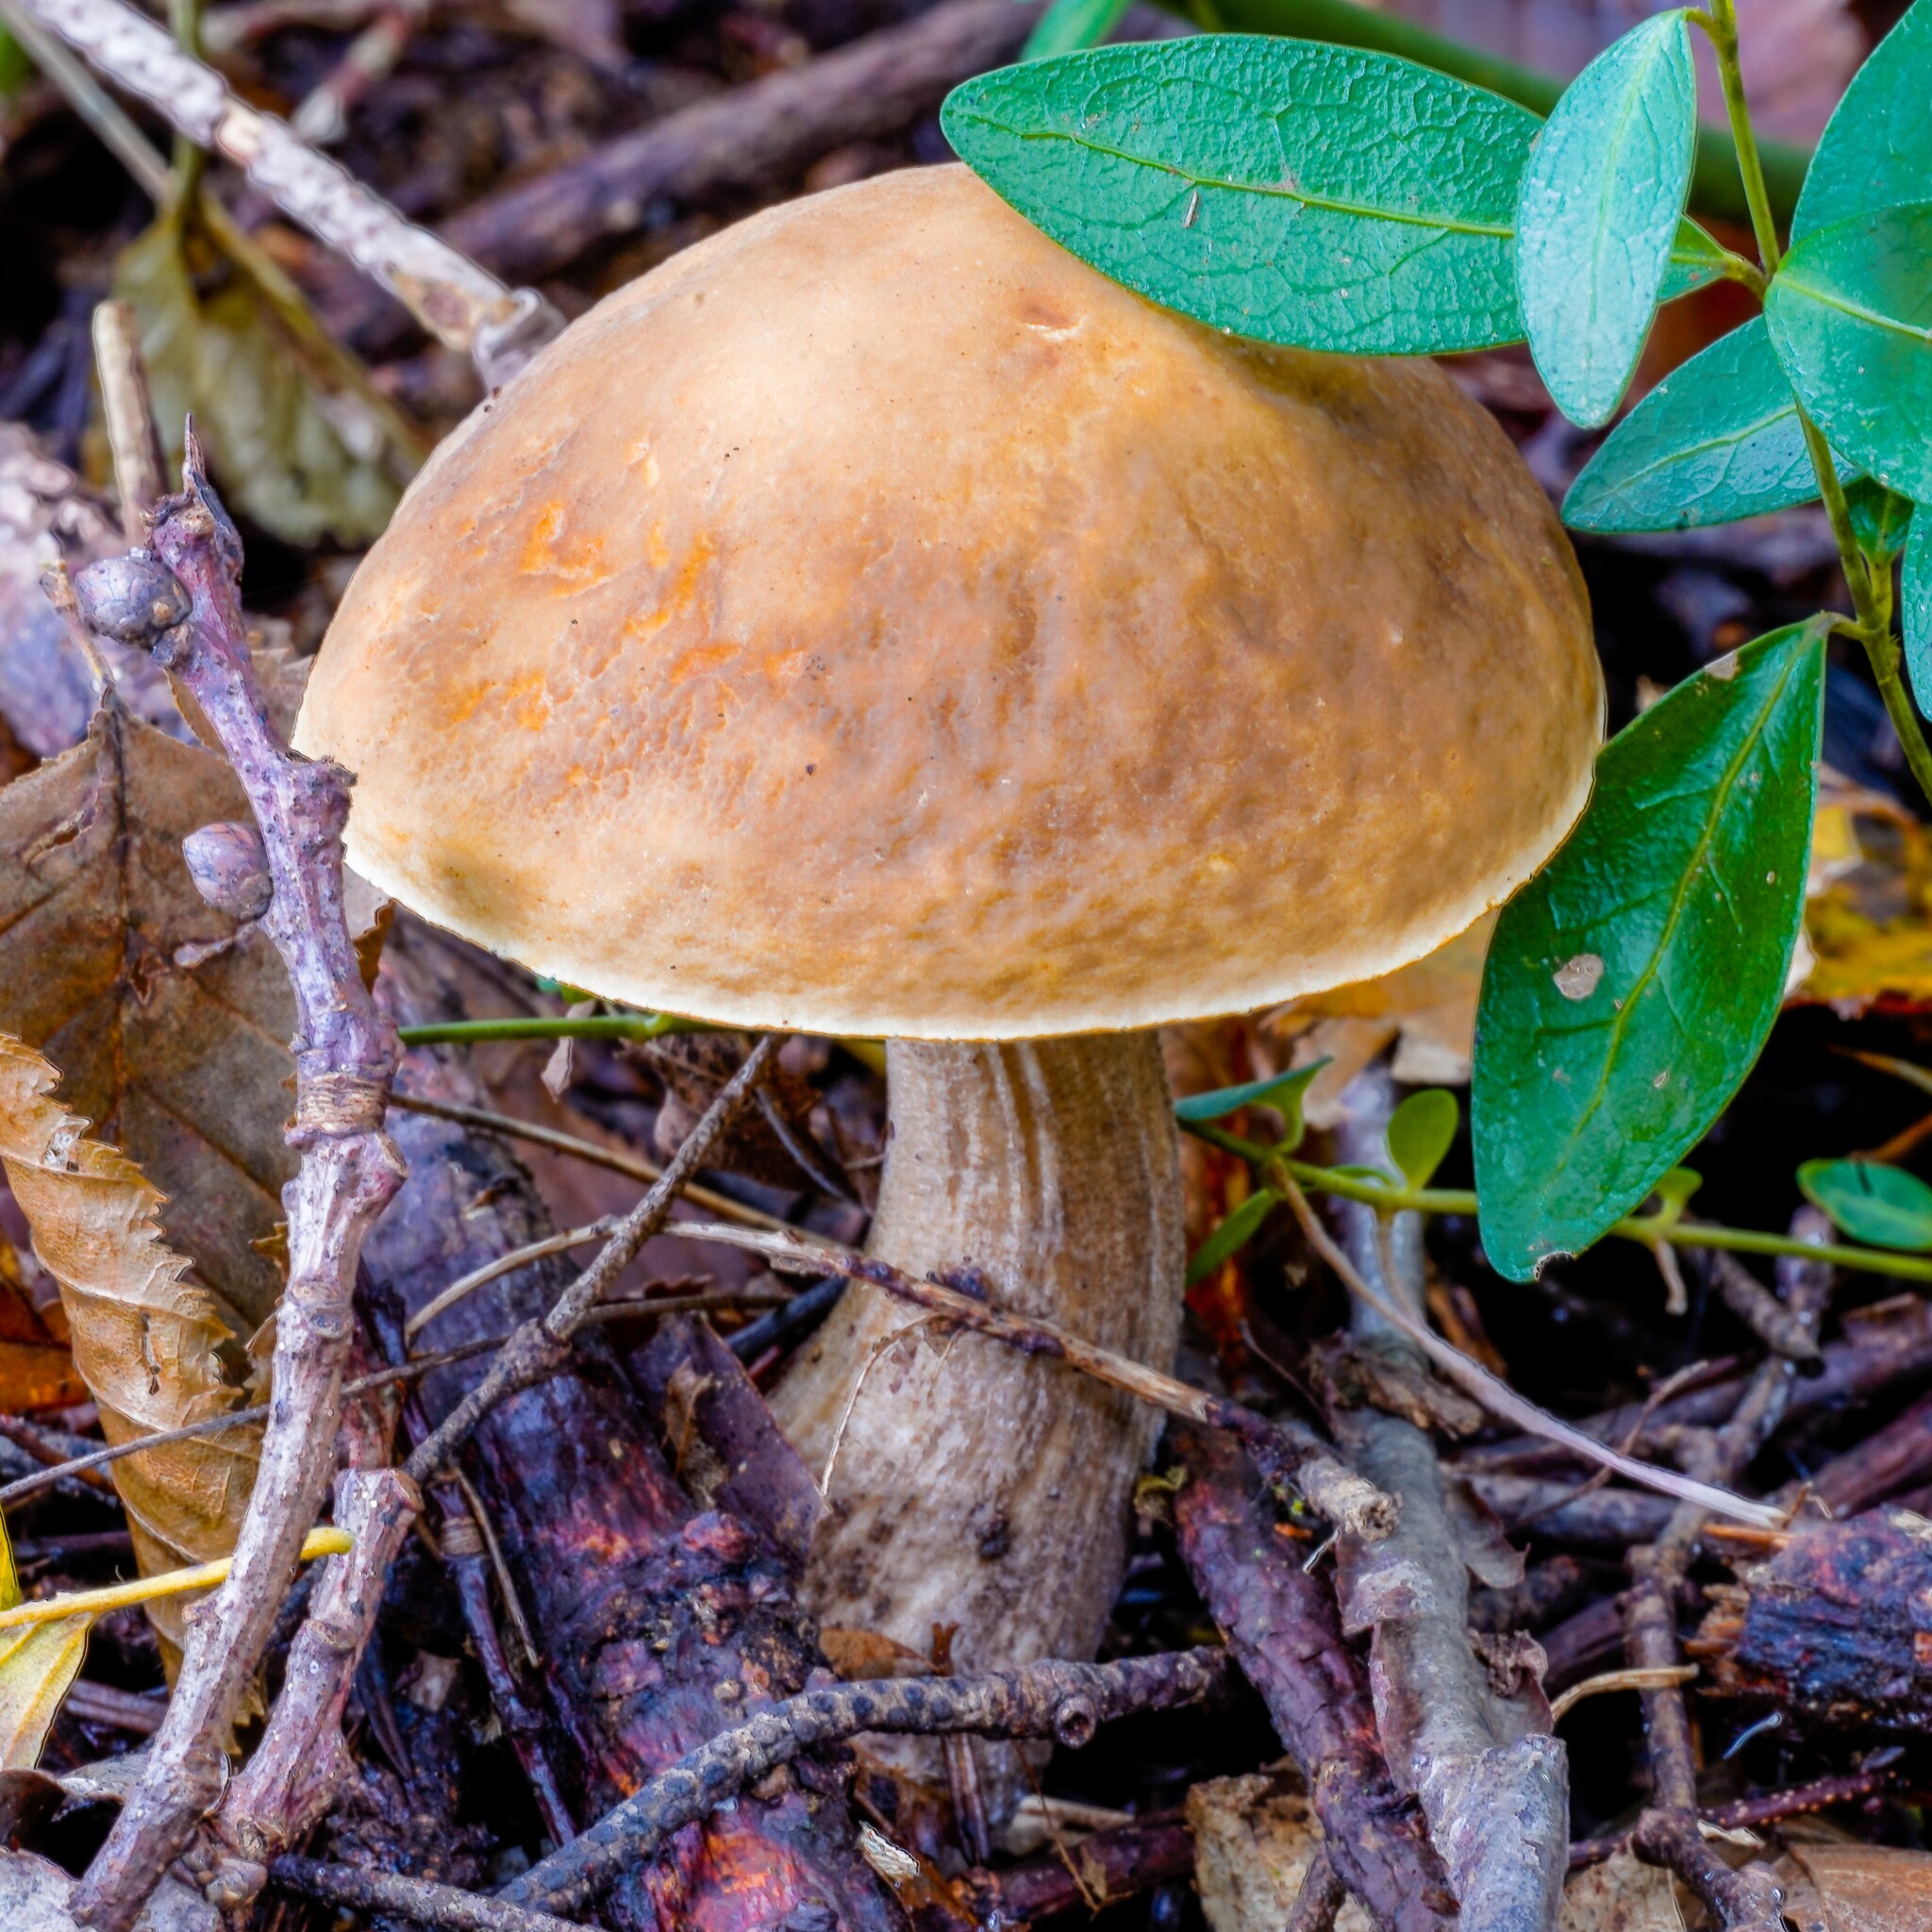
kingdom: Fungi
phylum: Basidiomycota
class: Agaricomycetes
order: Boletales
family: Boletaceae
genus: Leccinellum
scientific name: Leccinellum pseudoscabrum
